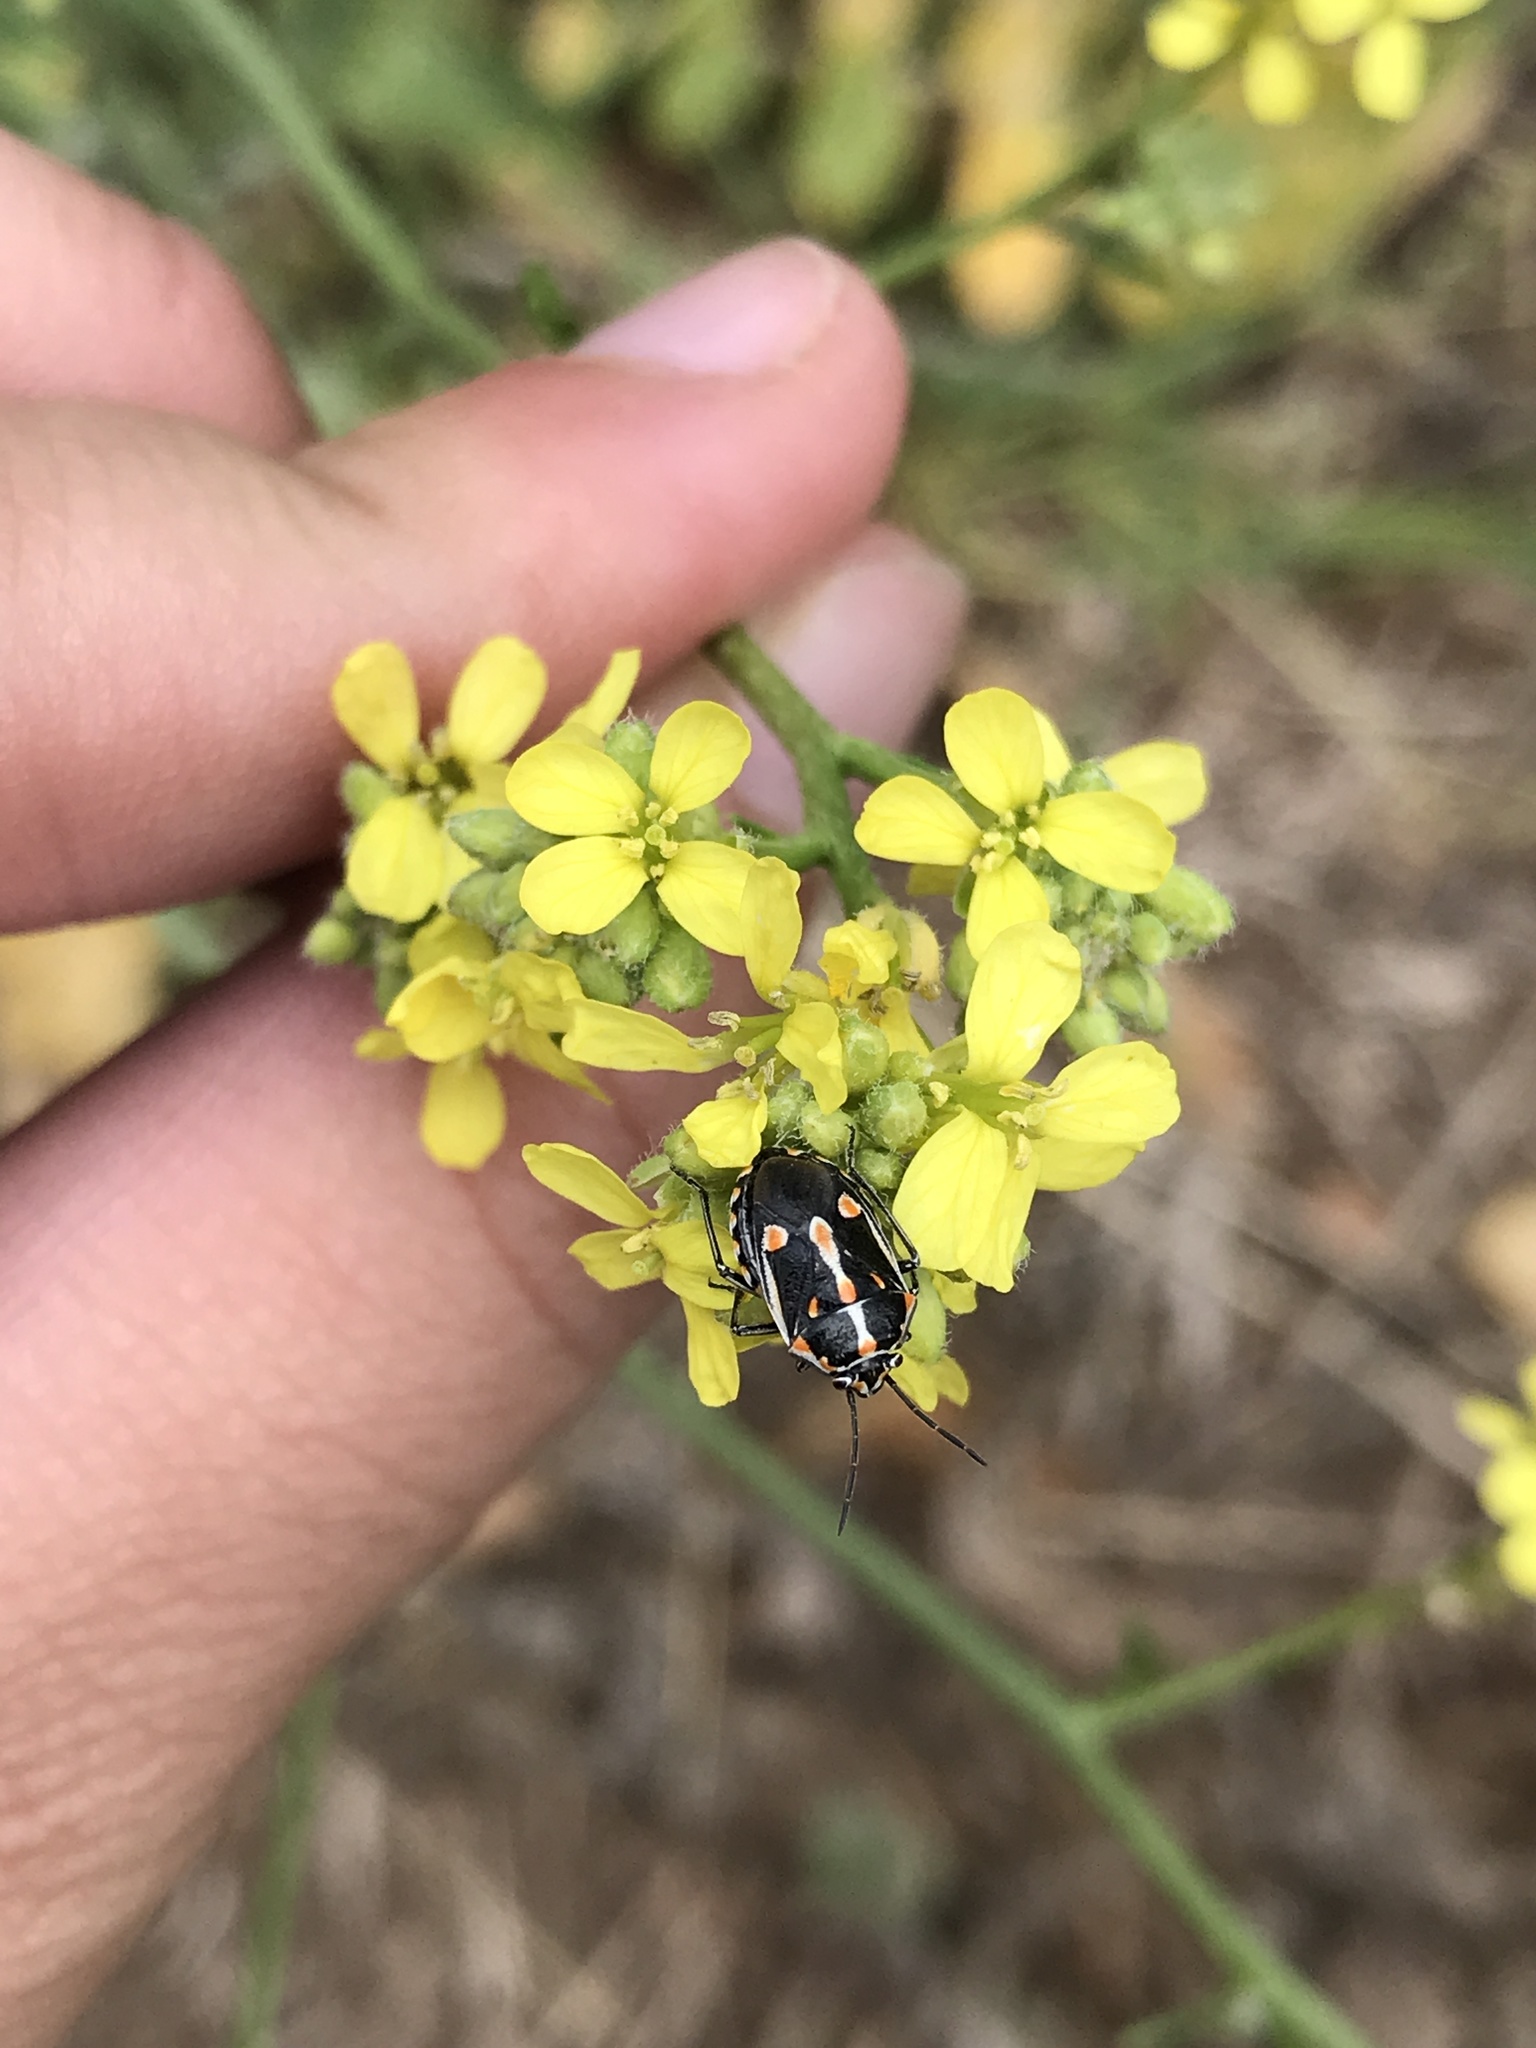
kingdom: Animalia
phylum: Arthropoda
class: Insecta
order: Hemiptera
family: Pentatomidae
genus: Bagrada
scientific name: Bagrada hilaris
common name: Bagrada bug
